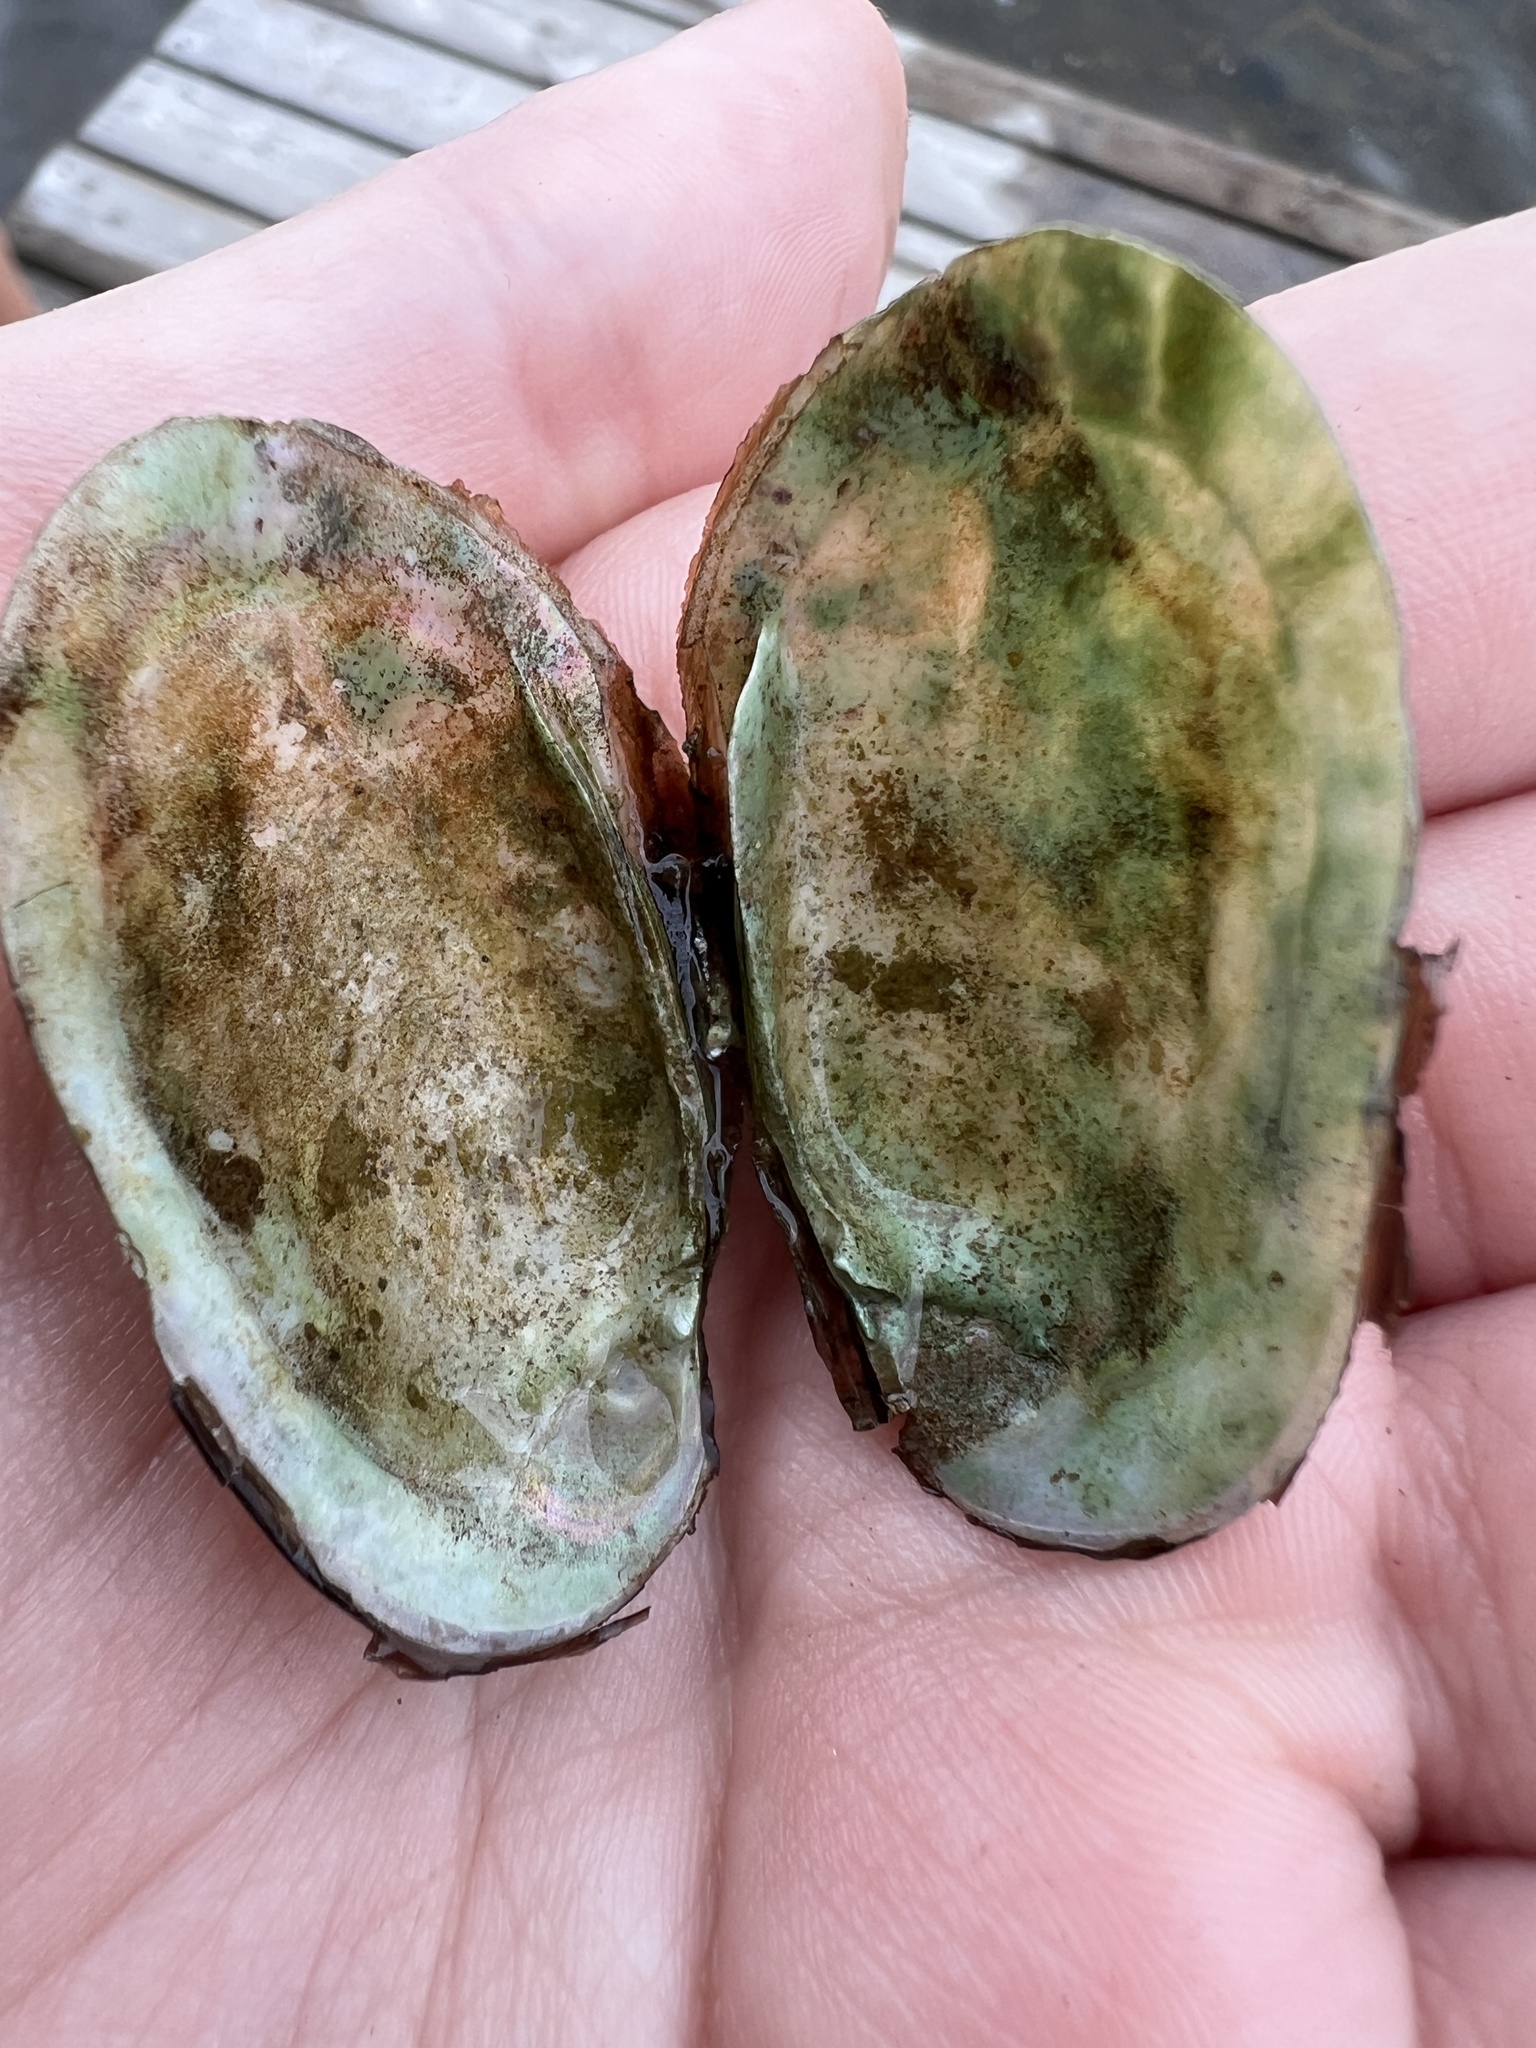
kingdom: Animalia
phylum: Mollusca
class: Bivalvia
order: Unionida
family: Unionidae
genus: Lampsilis
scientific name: Lampsilis siliquoidea
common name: Fatmucket
